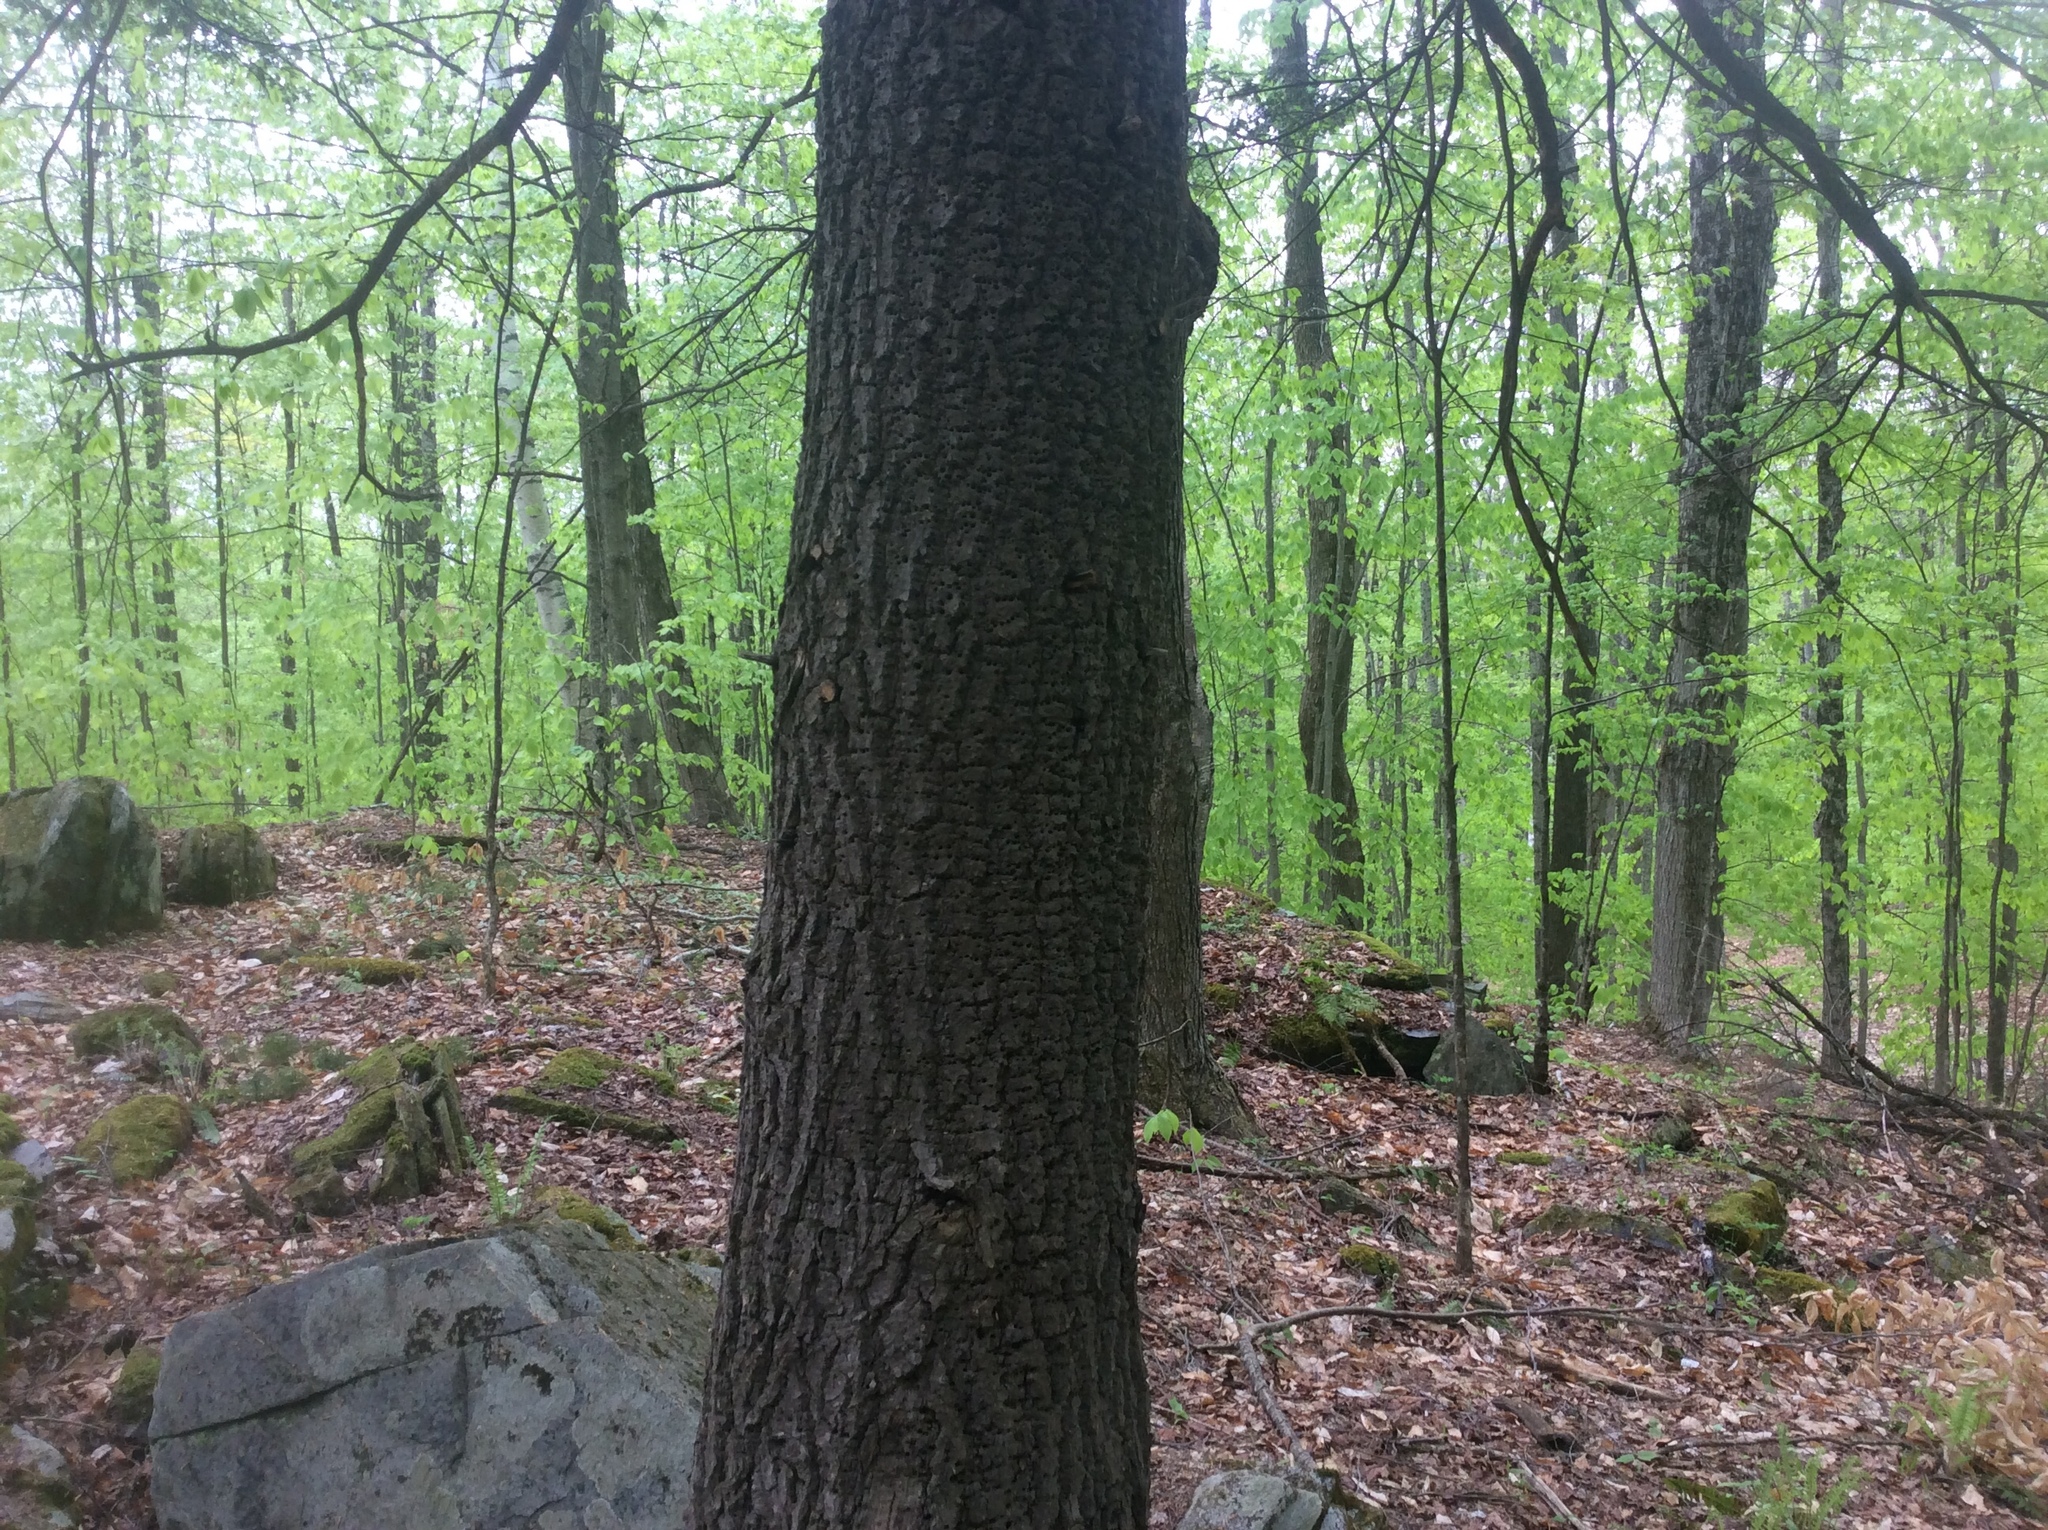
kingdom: Animalia
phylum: Chordata
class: Aves
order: Piciformes
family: Picidae
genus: Sphyrapicus
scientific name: Sphyrapicus varius
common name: Yellow-bellied sapsucker
